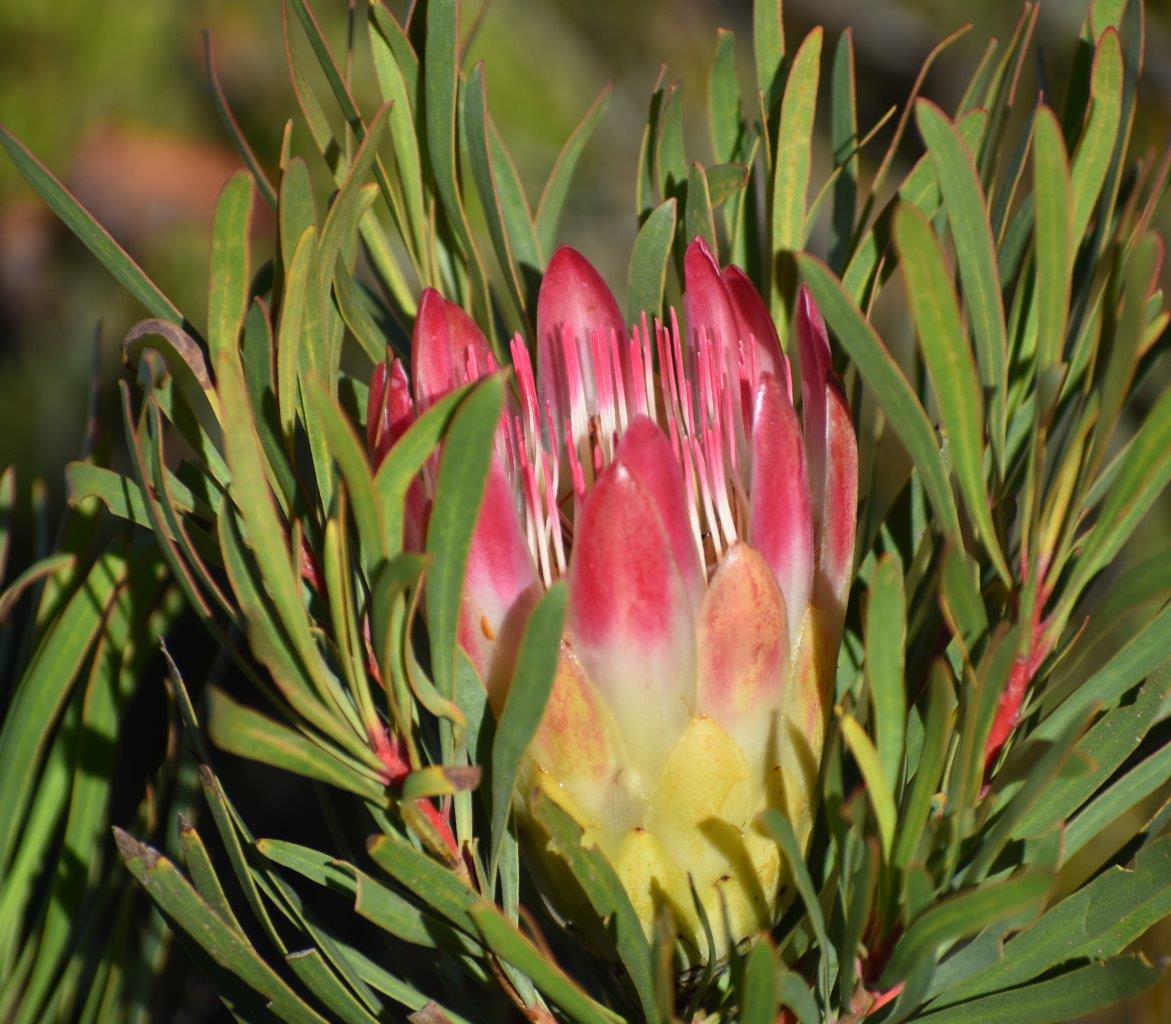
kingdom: Plantae
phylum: Tracheophyta
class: Magnoliopsida
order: Proteales
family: Proteaceae
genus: Protea
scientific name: Protea repens
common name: Sugarbush
